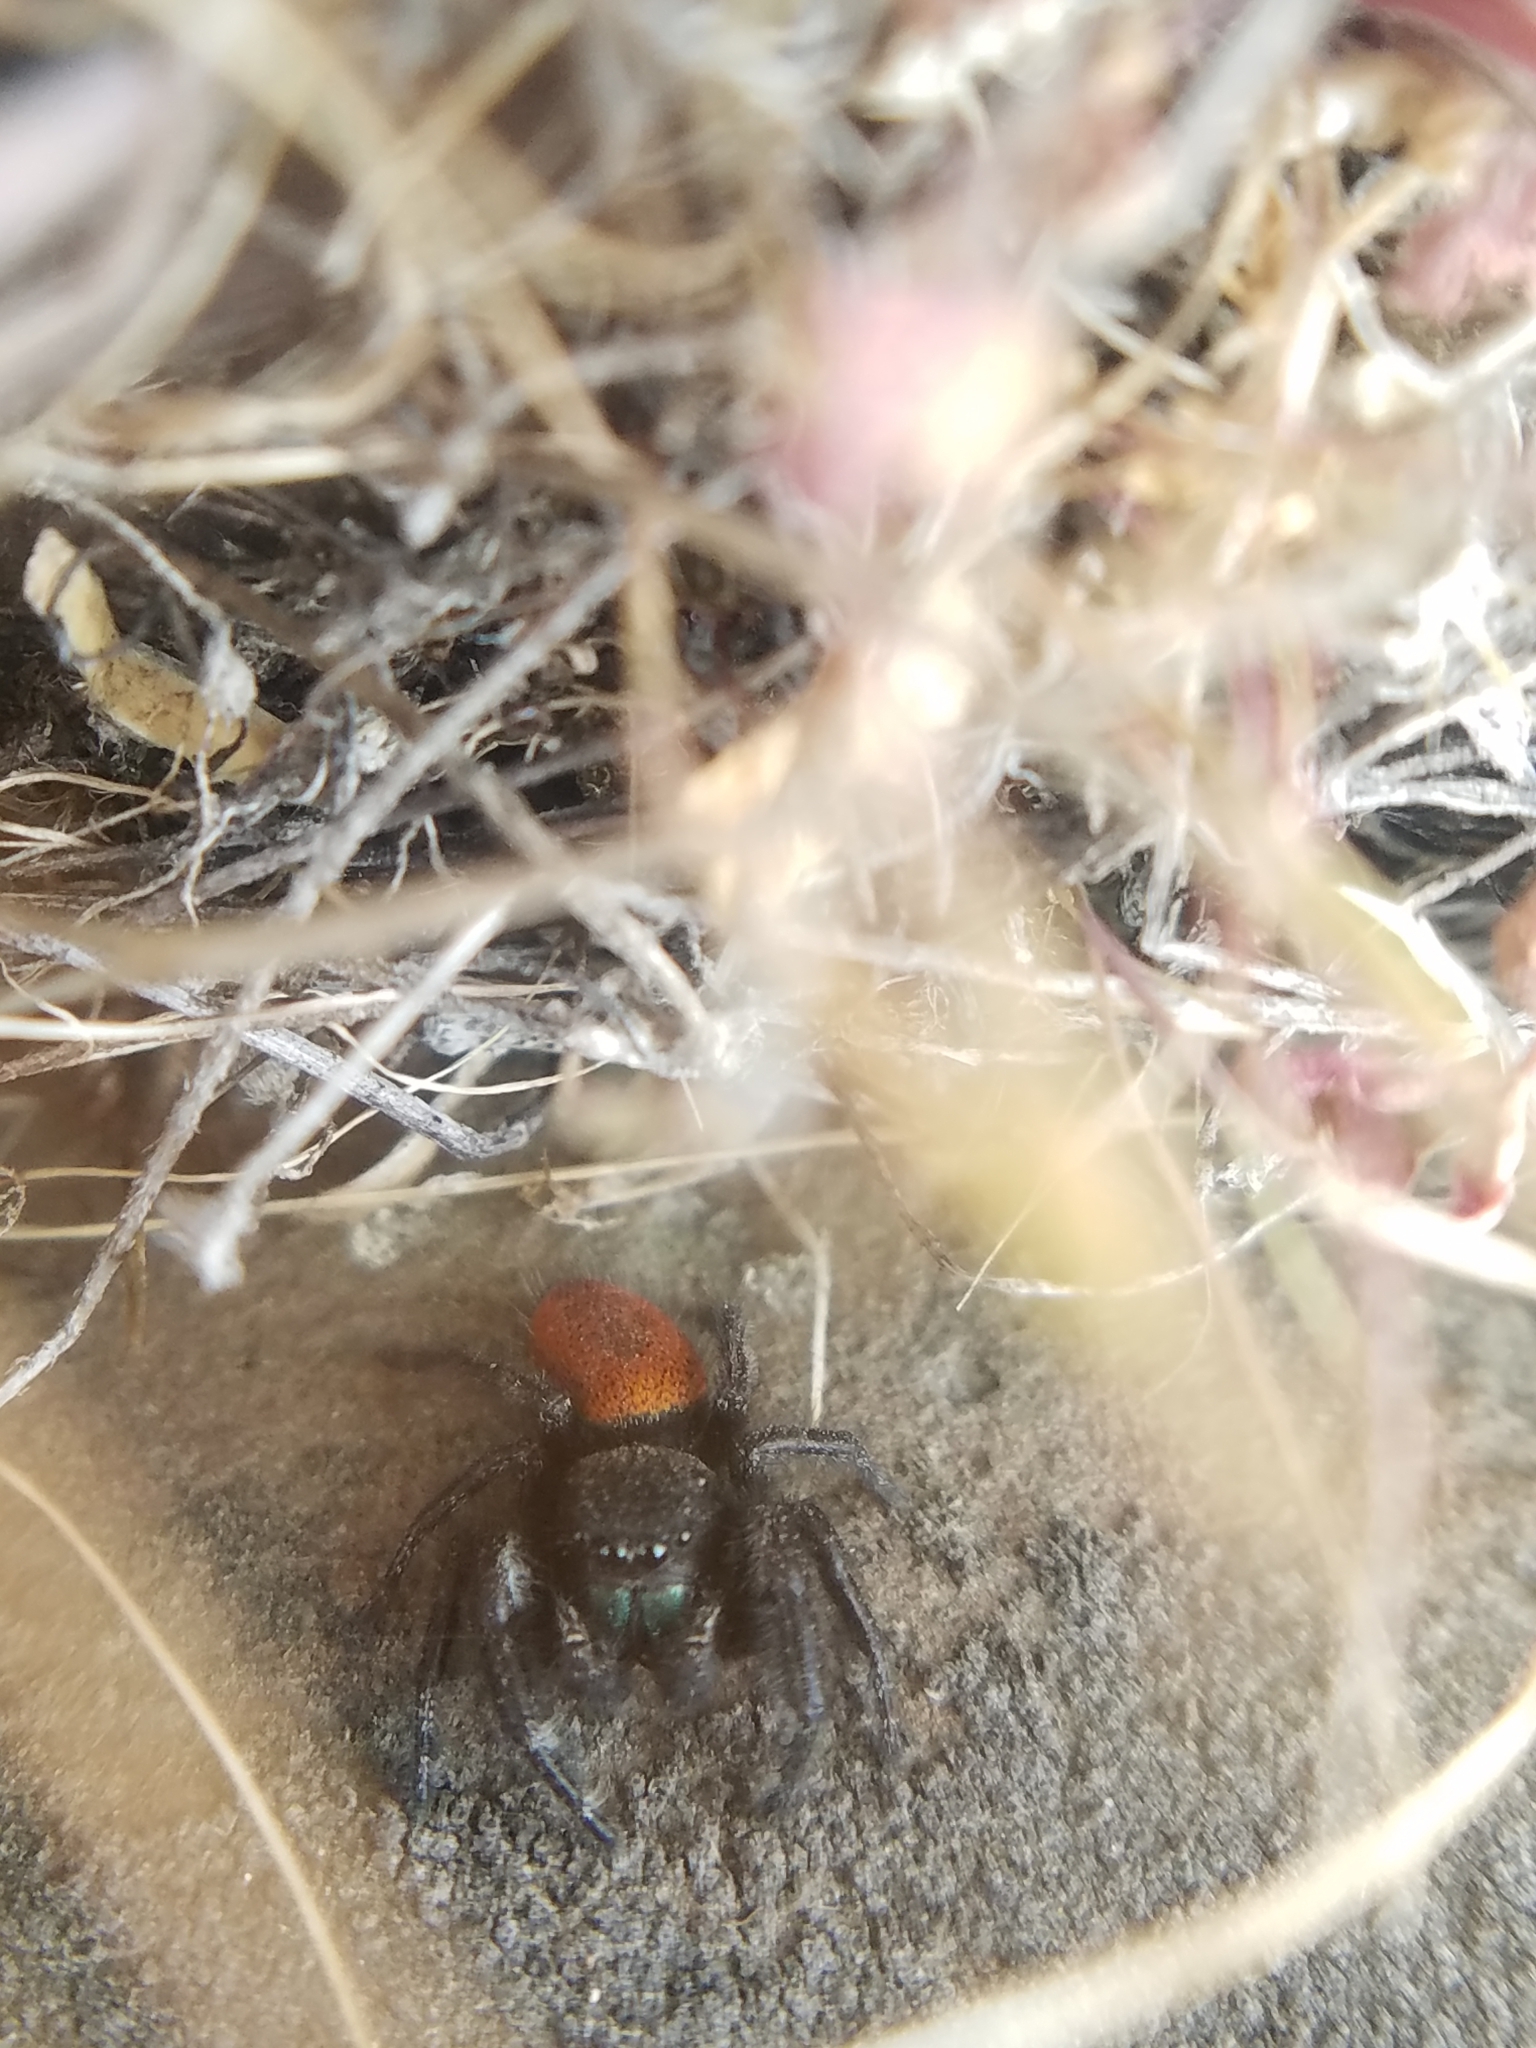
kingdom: Animalia
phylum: Arthropoda
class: Arachnida
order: Araneae
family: Salticidae
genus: Phidippus
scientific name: Phidippus johnsoni
